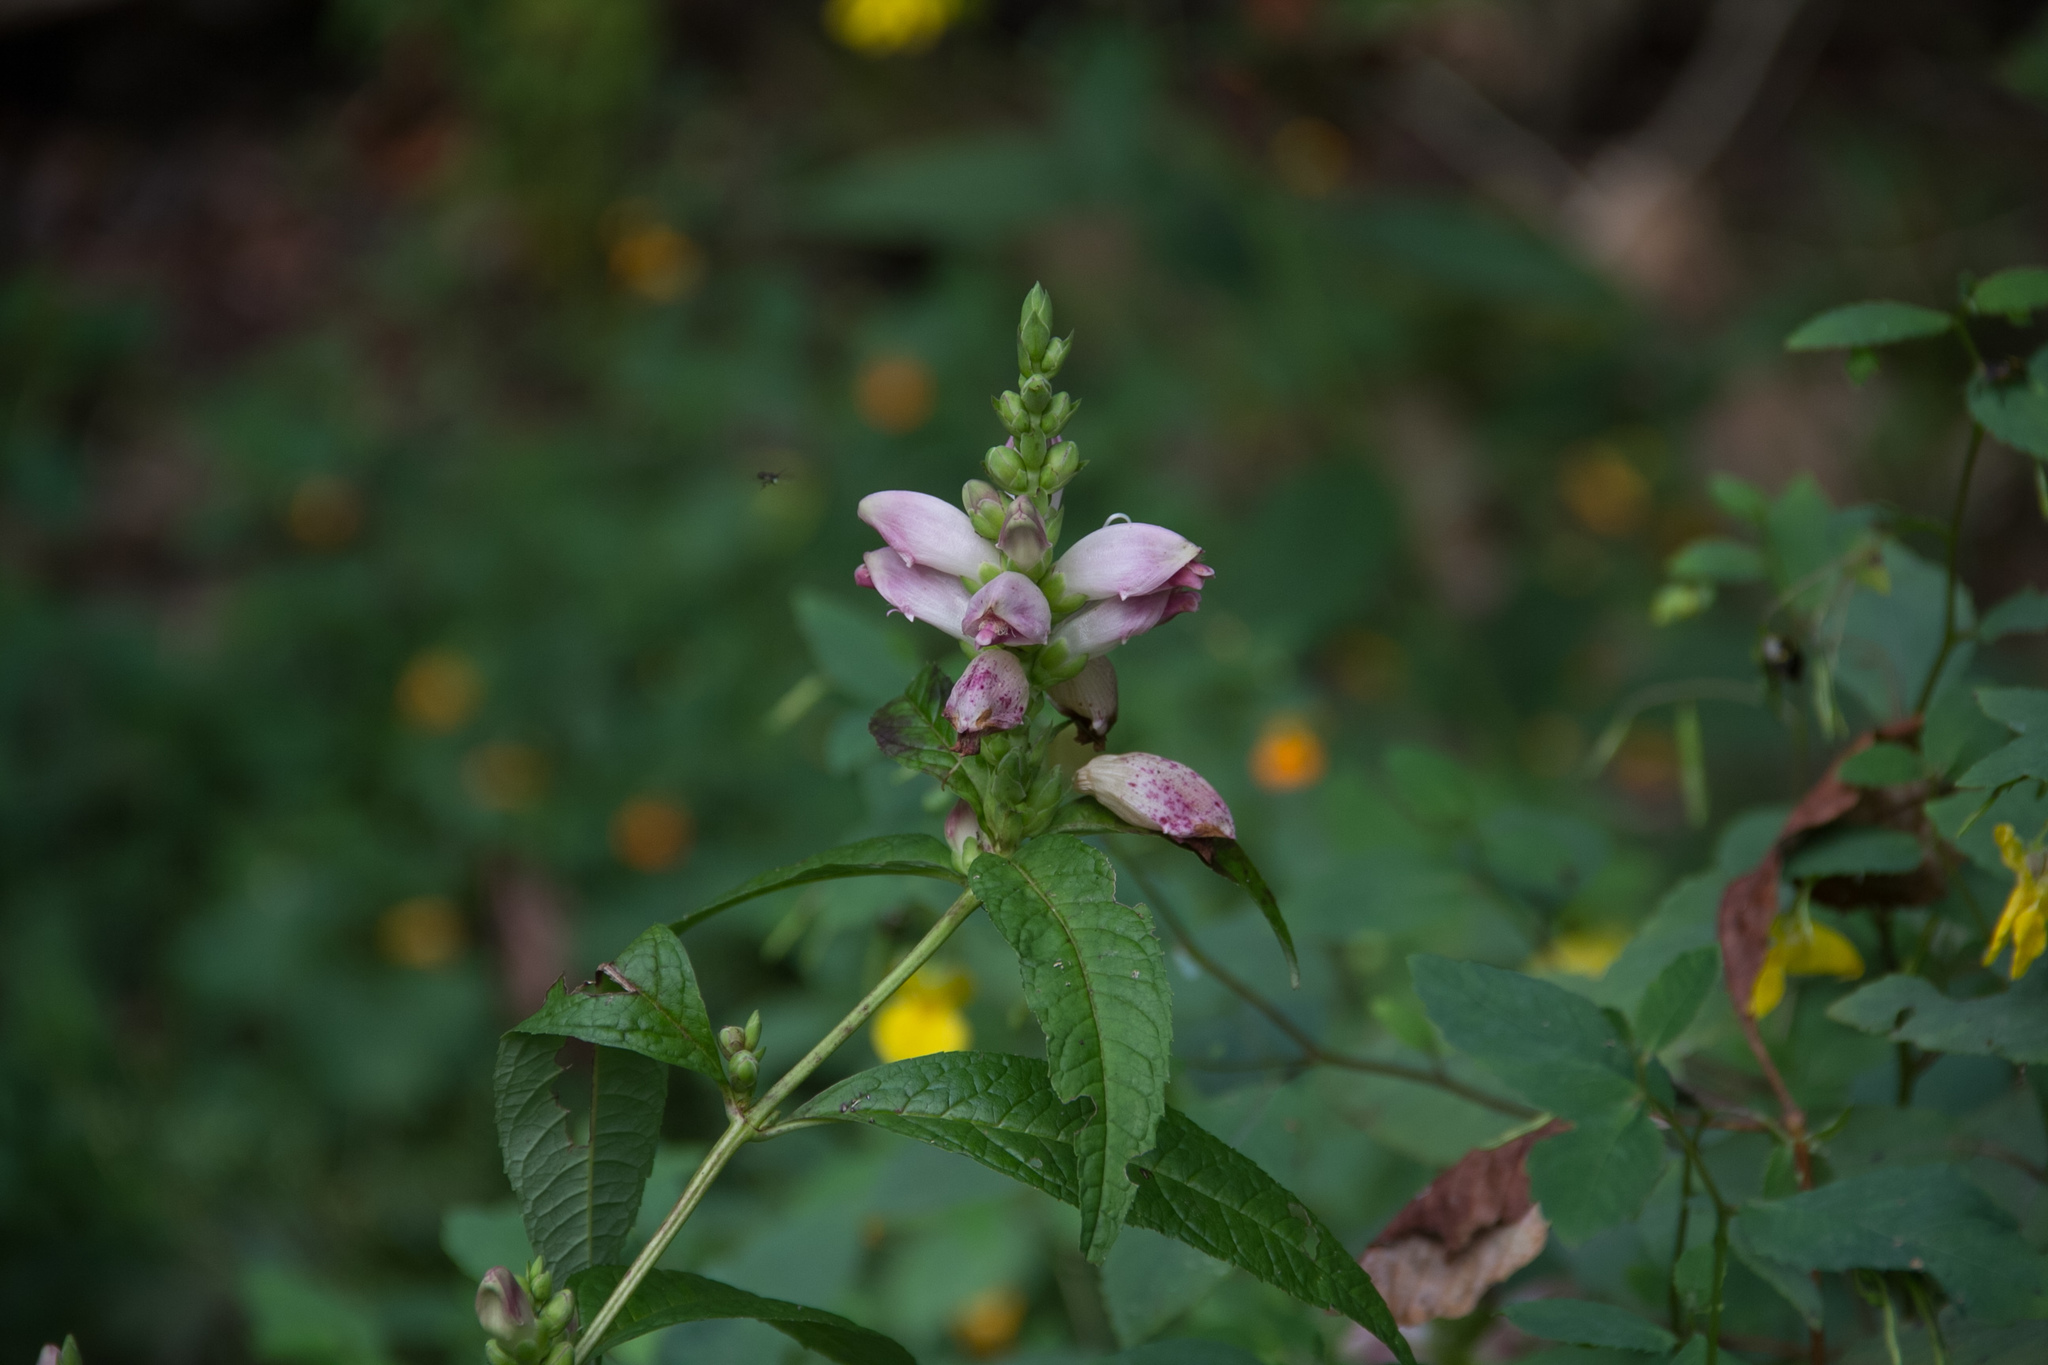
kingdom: Plantae
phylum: Tracheophyta
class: Magnoliopsida
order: Lamiales
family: Plantaginaceae
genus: Chelone
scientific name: Chelone glabra
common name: Snakehead
